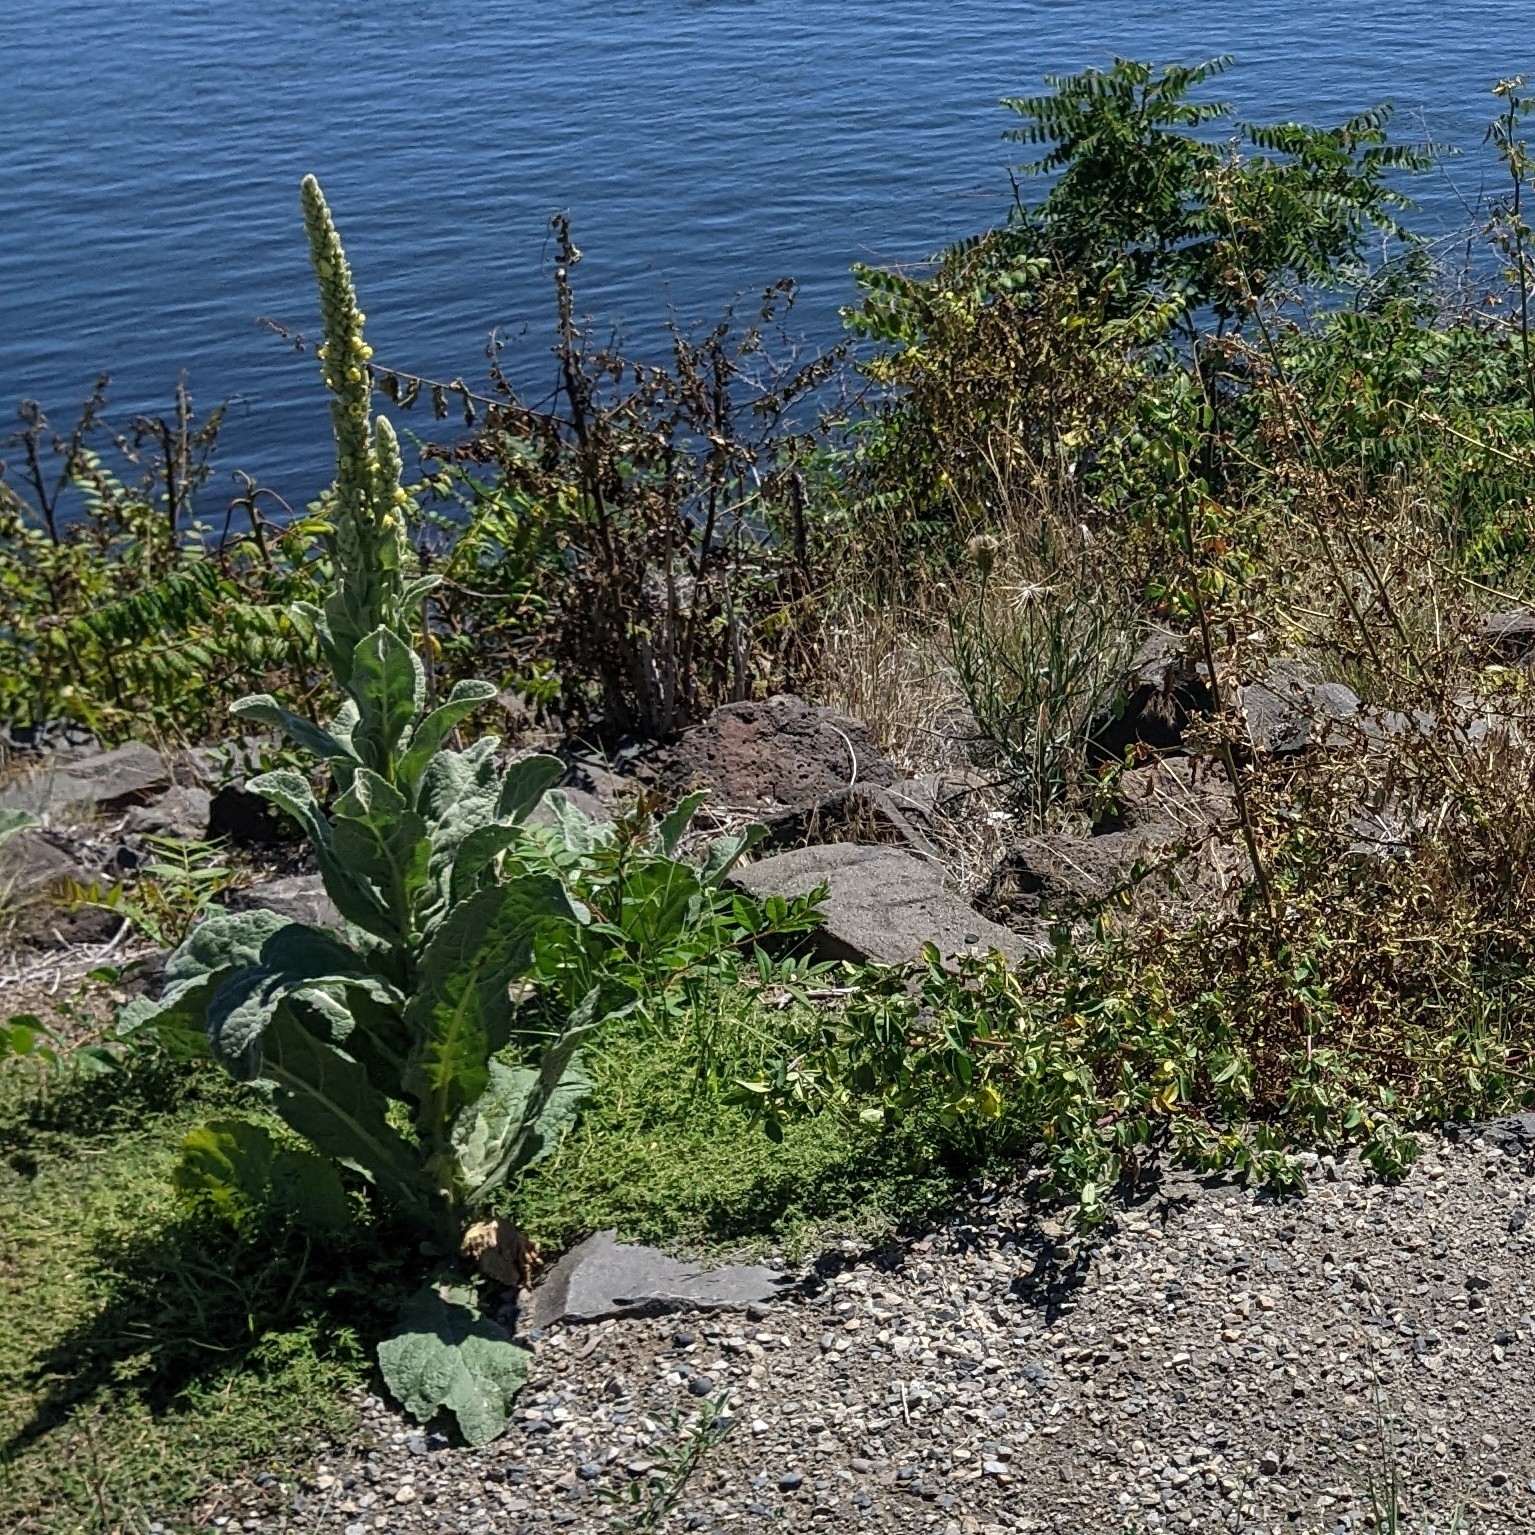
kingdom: Plantae
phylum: Tracheophyta
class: Magnoliopsida
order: Lamiales
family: Scrophulariaceae
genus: Verbascum
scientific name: Verbascum thapsus
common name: Common mullein
